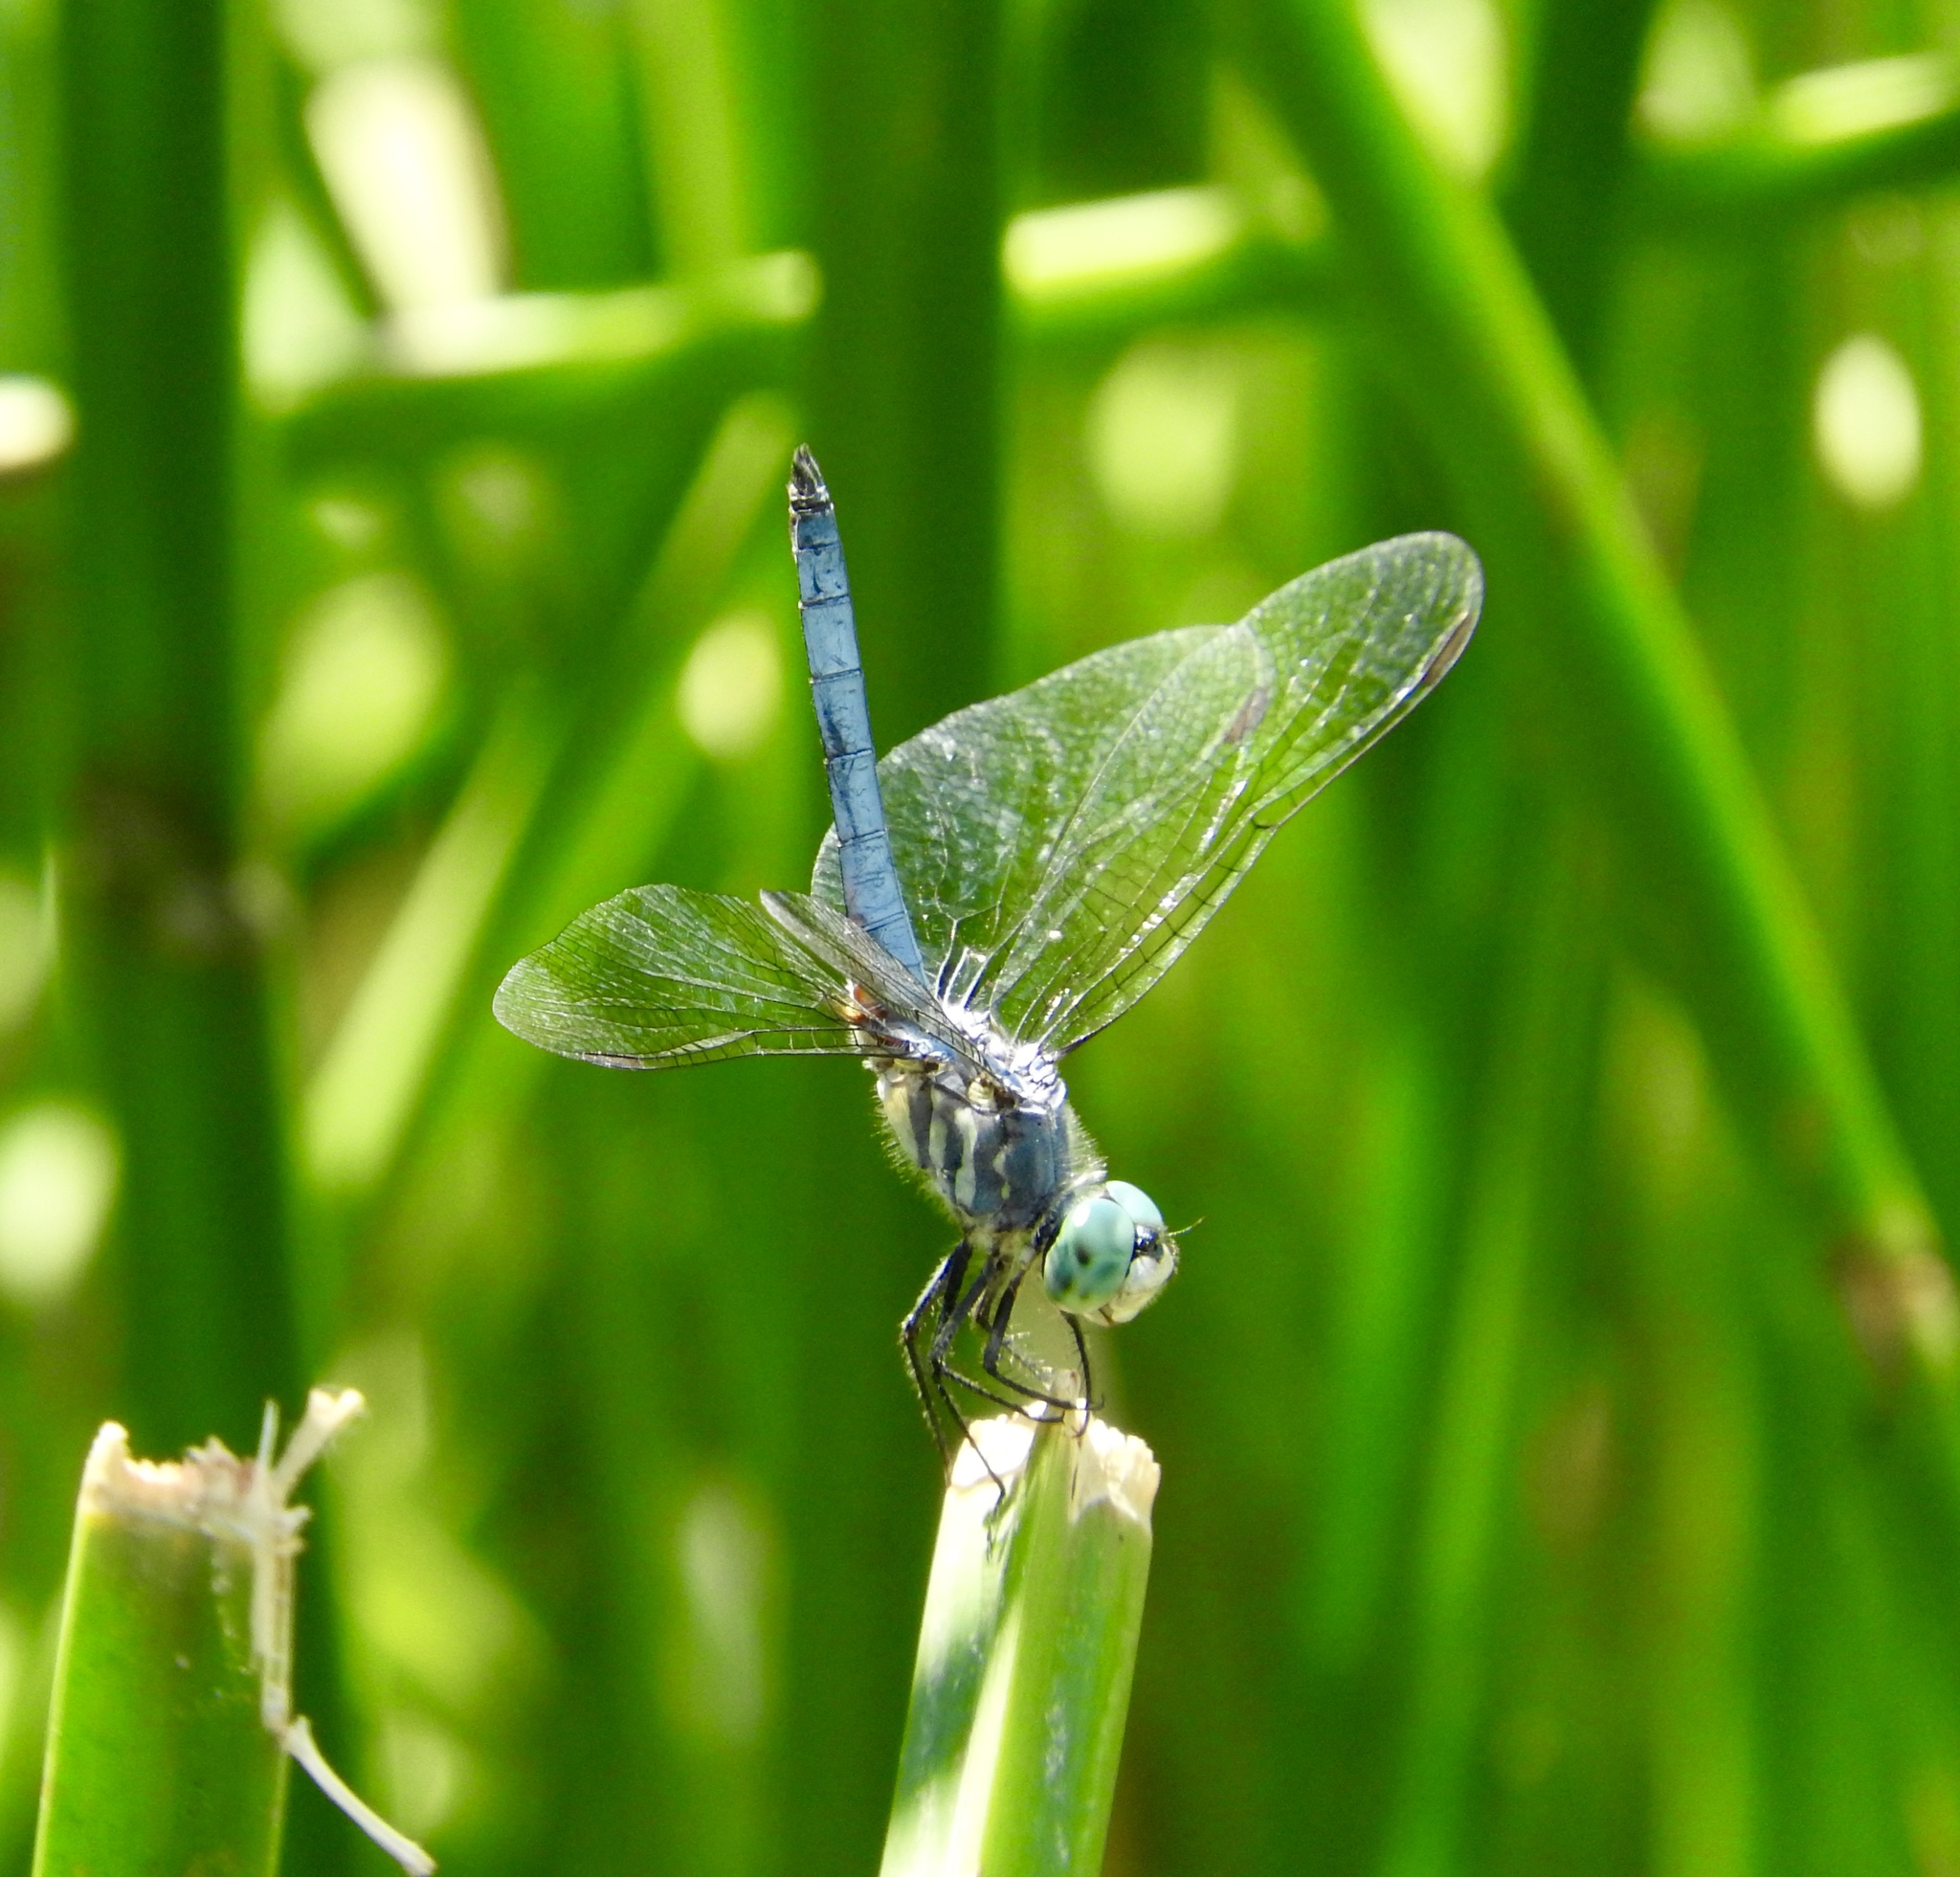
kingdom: Animalia
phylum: Arthropoda
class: Insecta
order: Odonata
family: Libellulidae
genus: Pachydiplax
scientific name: Pachydiplax longipennis
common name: Blue dasher
